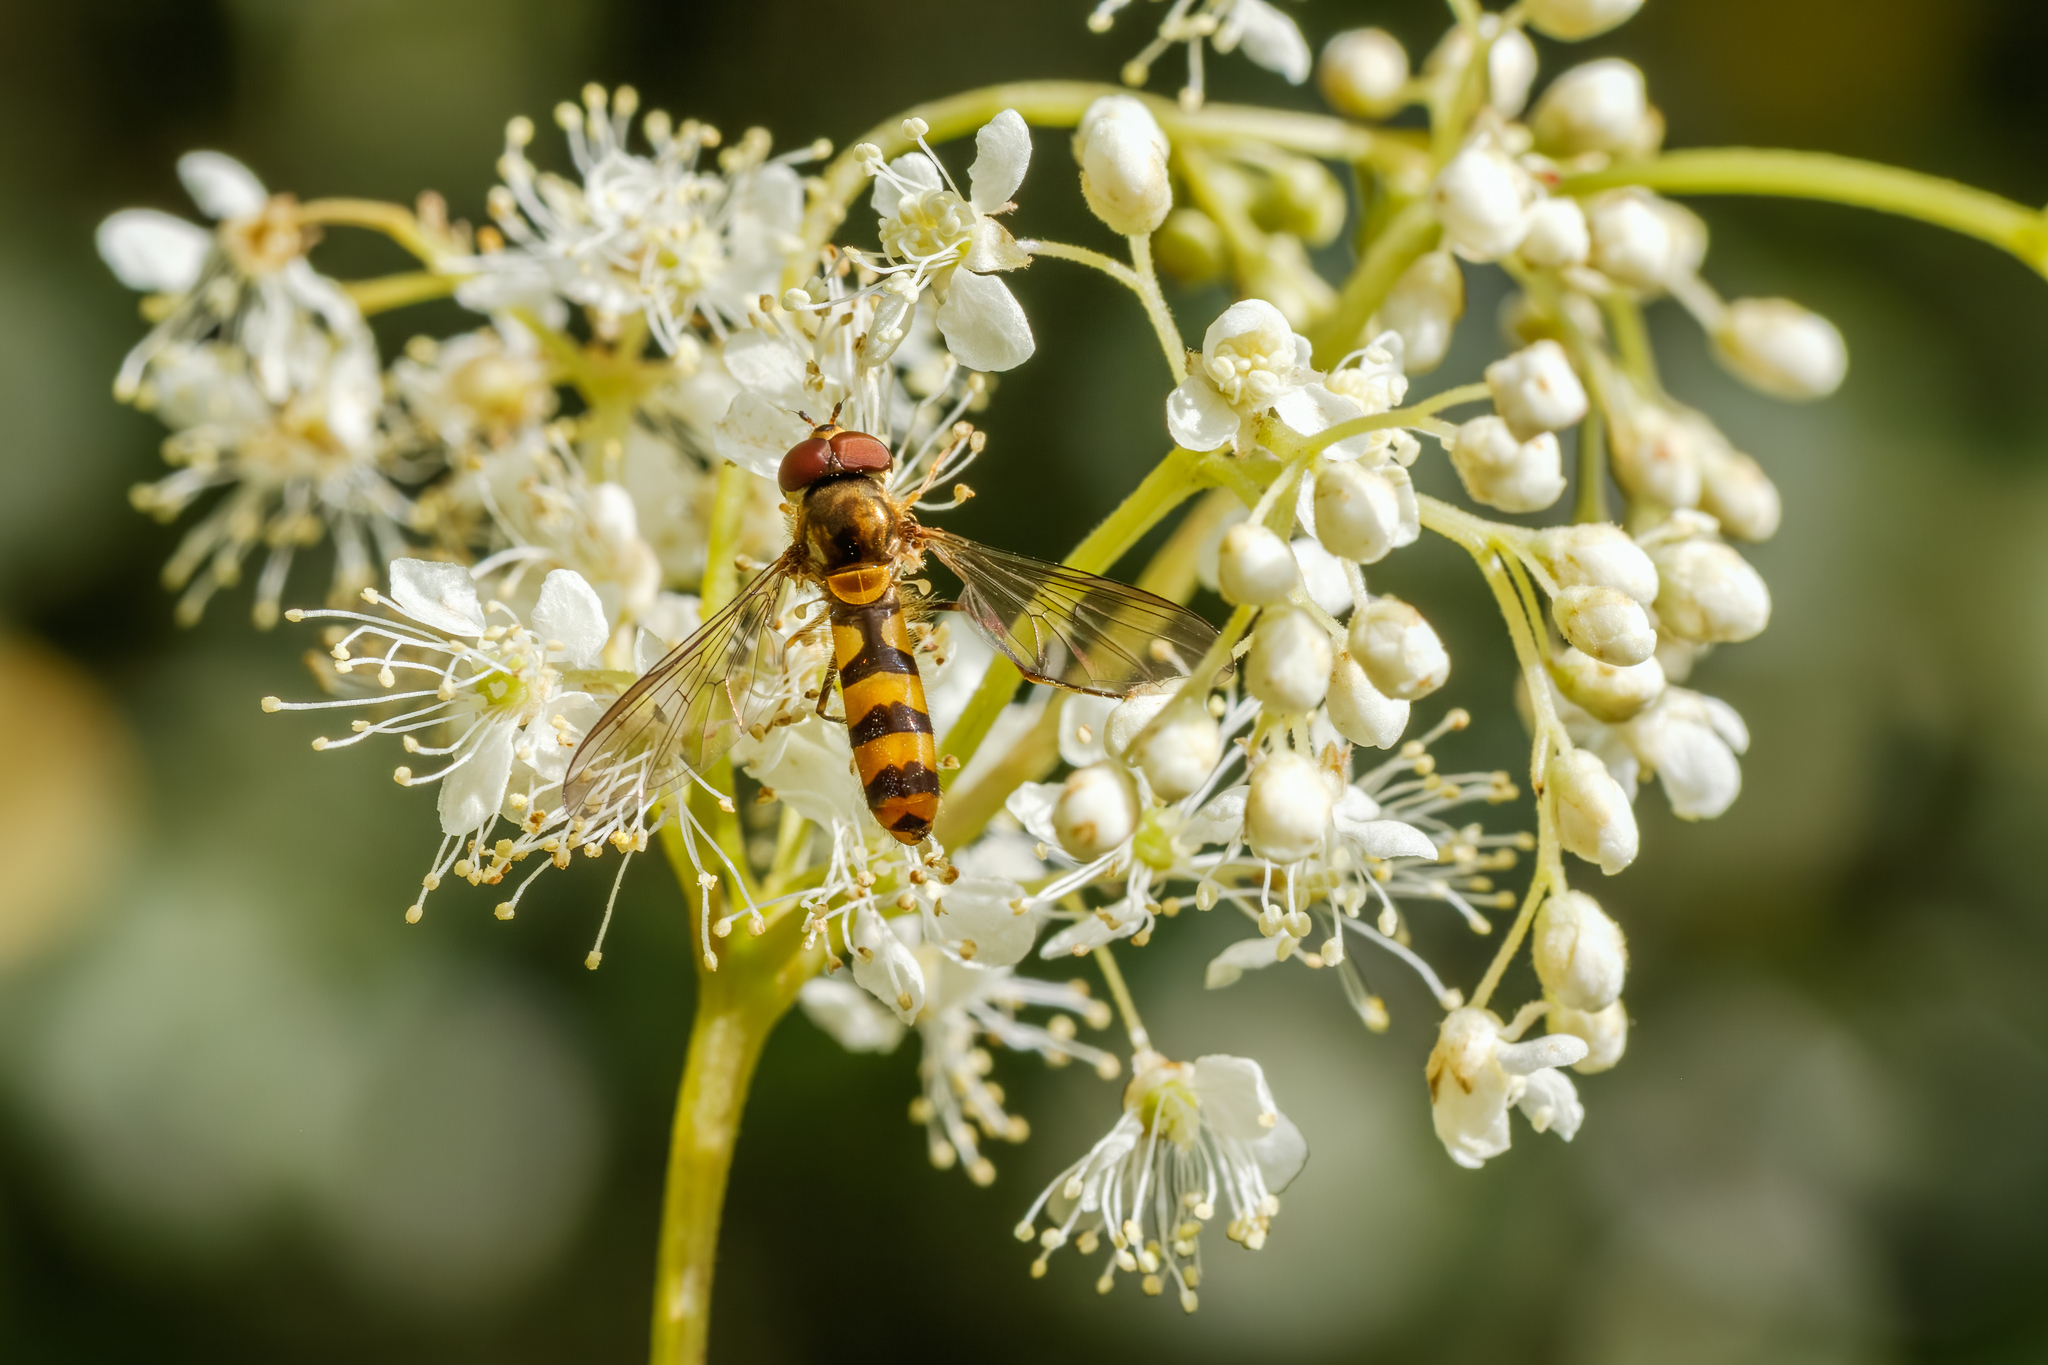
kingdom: Animalia
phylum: Arthropoda
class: Insecta
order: Diptera
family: Syrphidae
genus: Meliscaeva
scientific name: Meliscaeva cinctella
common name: American thintail fly
